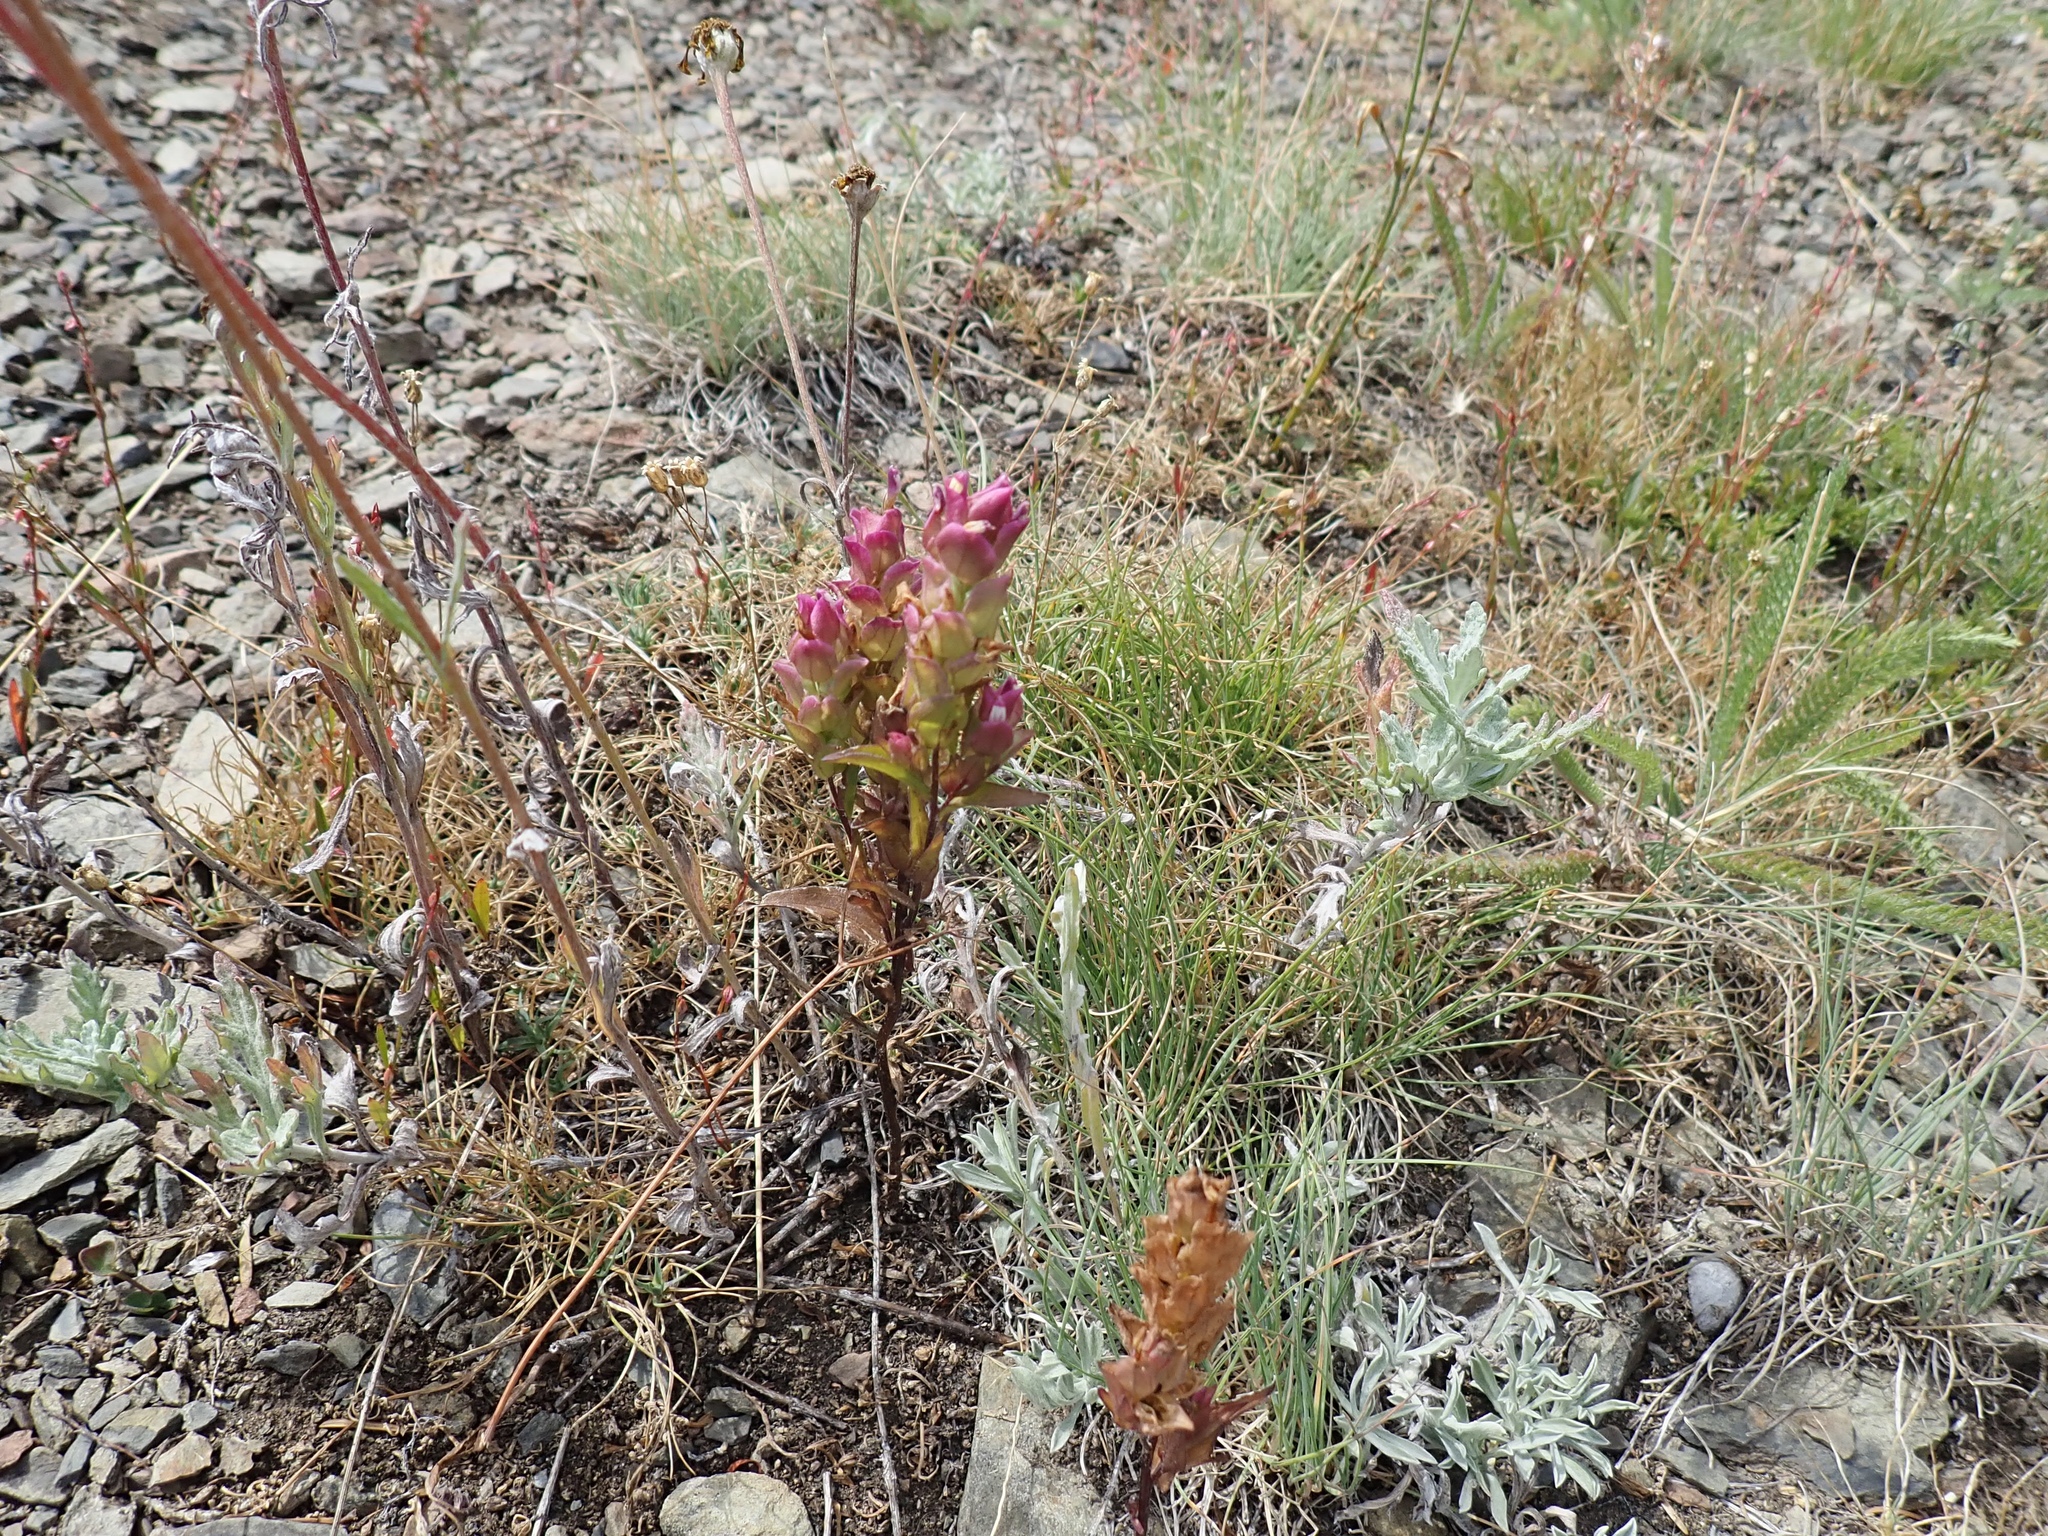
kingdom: Plantae
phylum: Tracheophyta
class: Magnoliopsida
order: Lamiales
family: Orobanchaceae
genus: Orthocarpus
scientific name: Orthocarpus imbricatus
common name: Mountain owl's-clover
